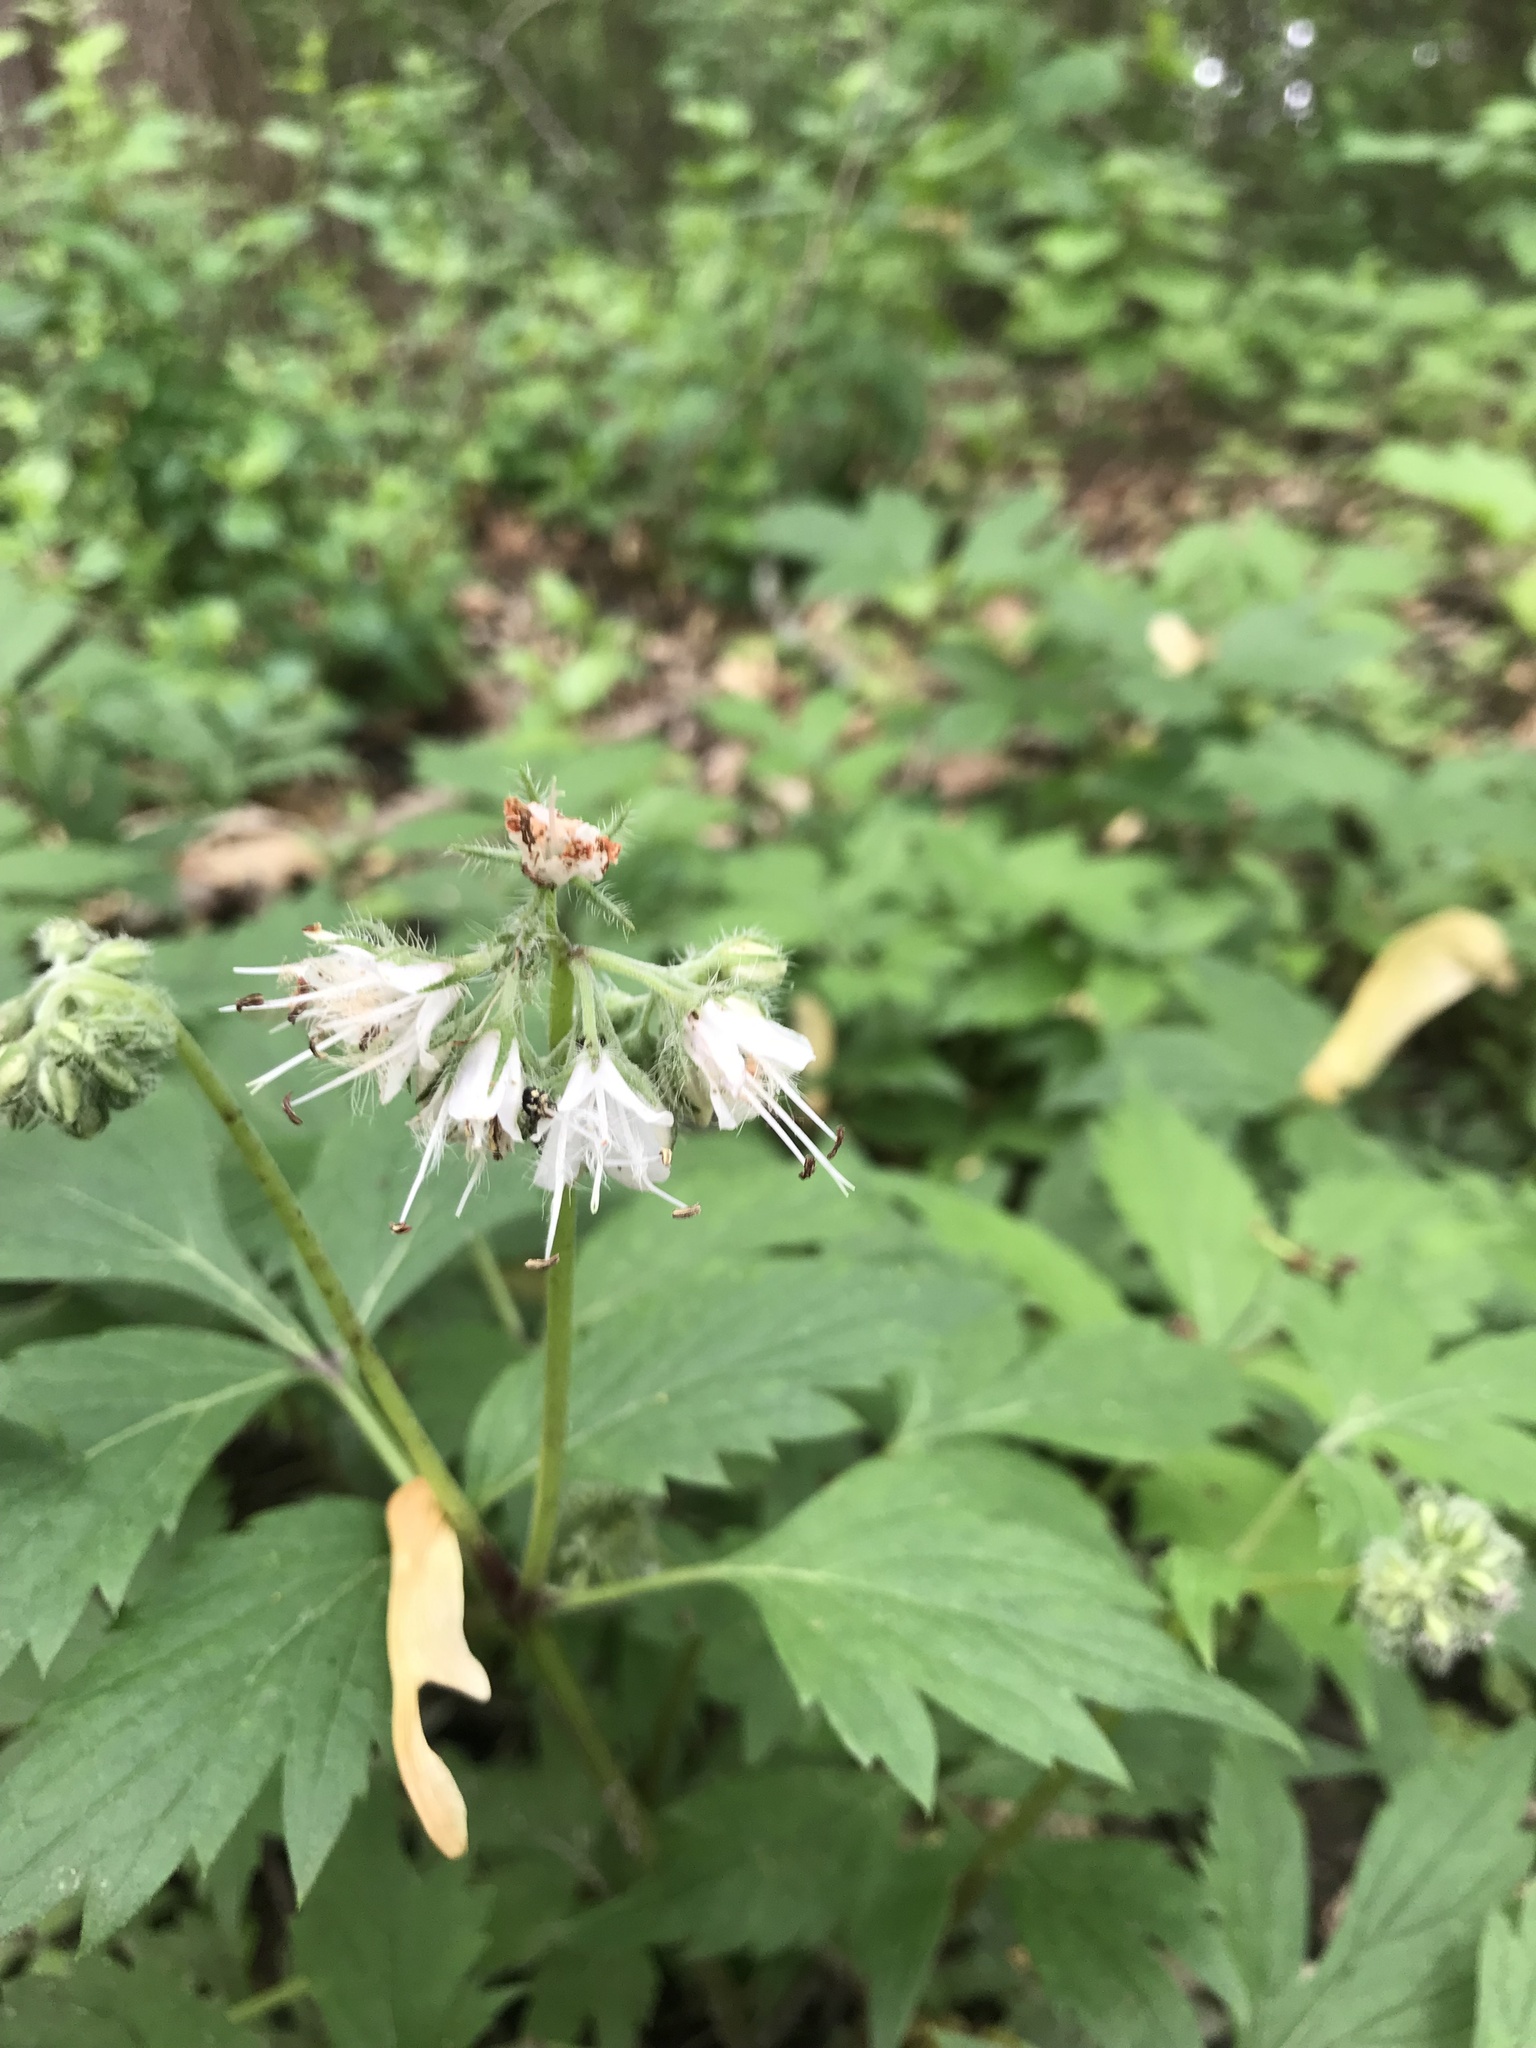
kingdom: Plantae
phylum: Tracheophyta
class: Magnoliopsida
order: Boraginales
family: Hydrophyllaceae
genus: Hydrophyllum
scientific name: Hydrophyllum virginianum
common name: Virginia waterleaf
